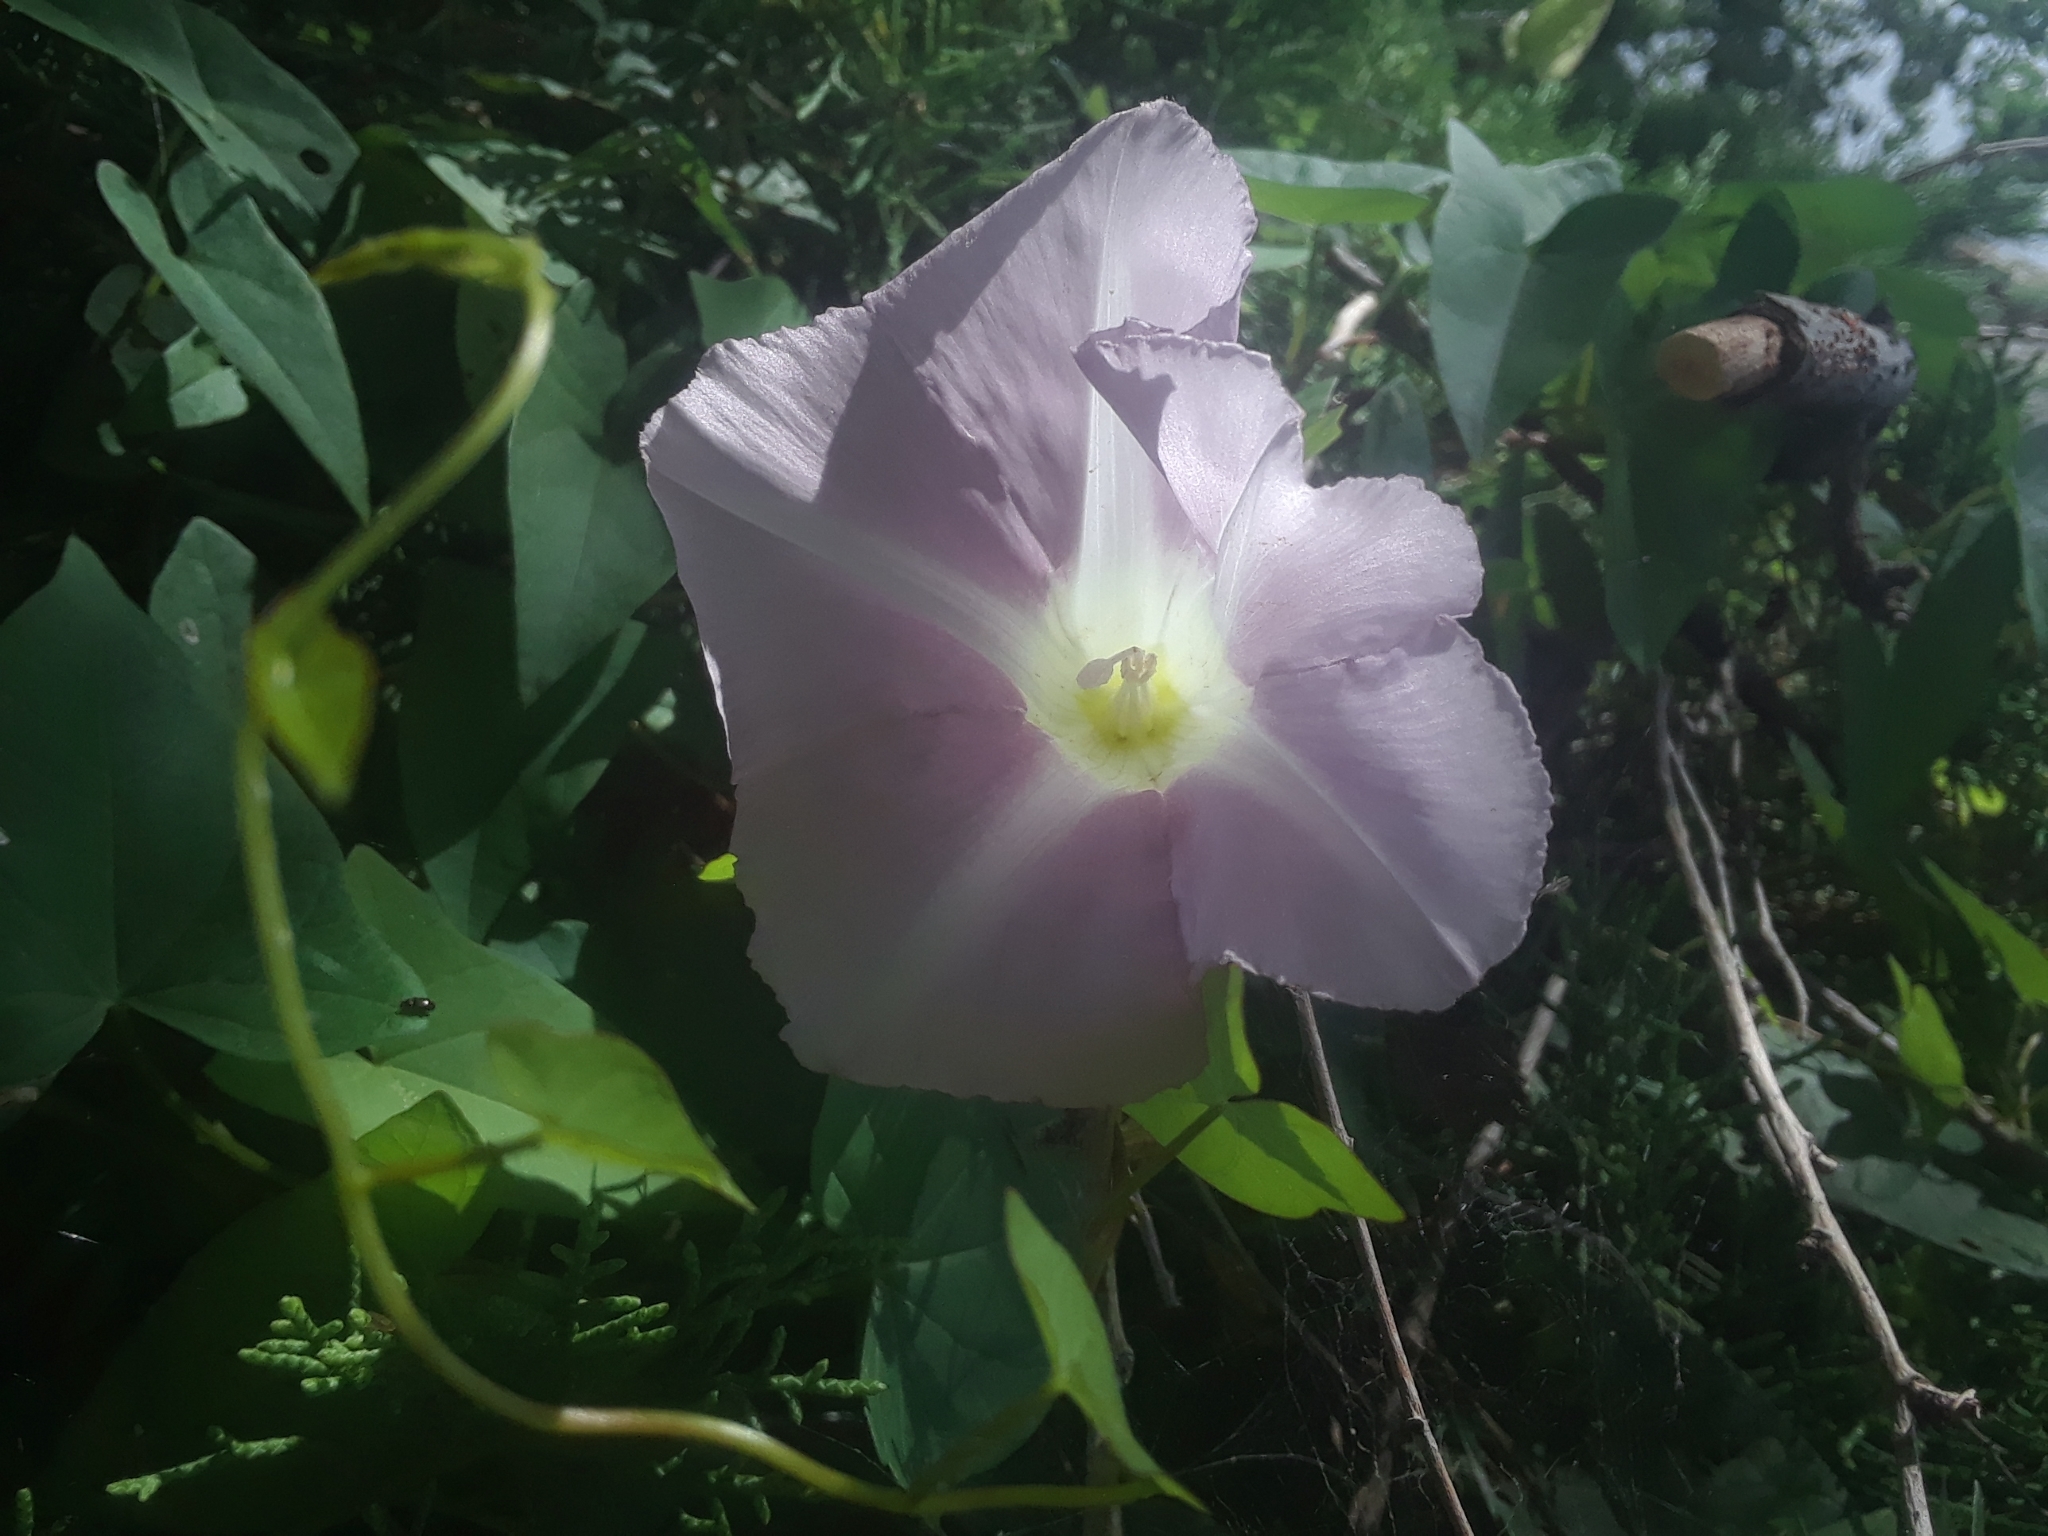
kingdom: Plantae
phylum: Tracheophyta
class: Magnoliopsida
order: Solanales
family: Convolvulaceae
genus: Calystegia
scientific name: Calystegia sepium
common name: Hedge bindweed
